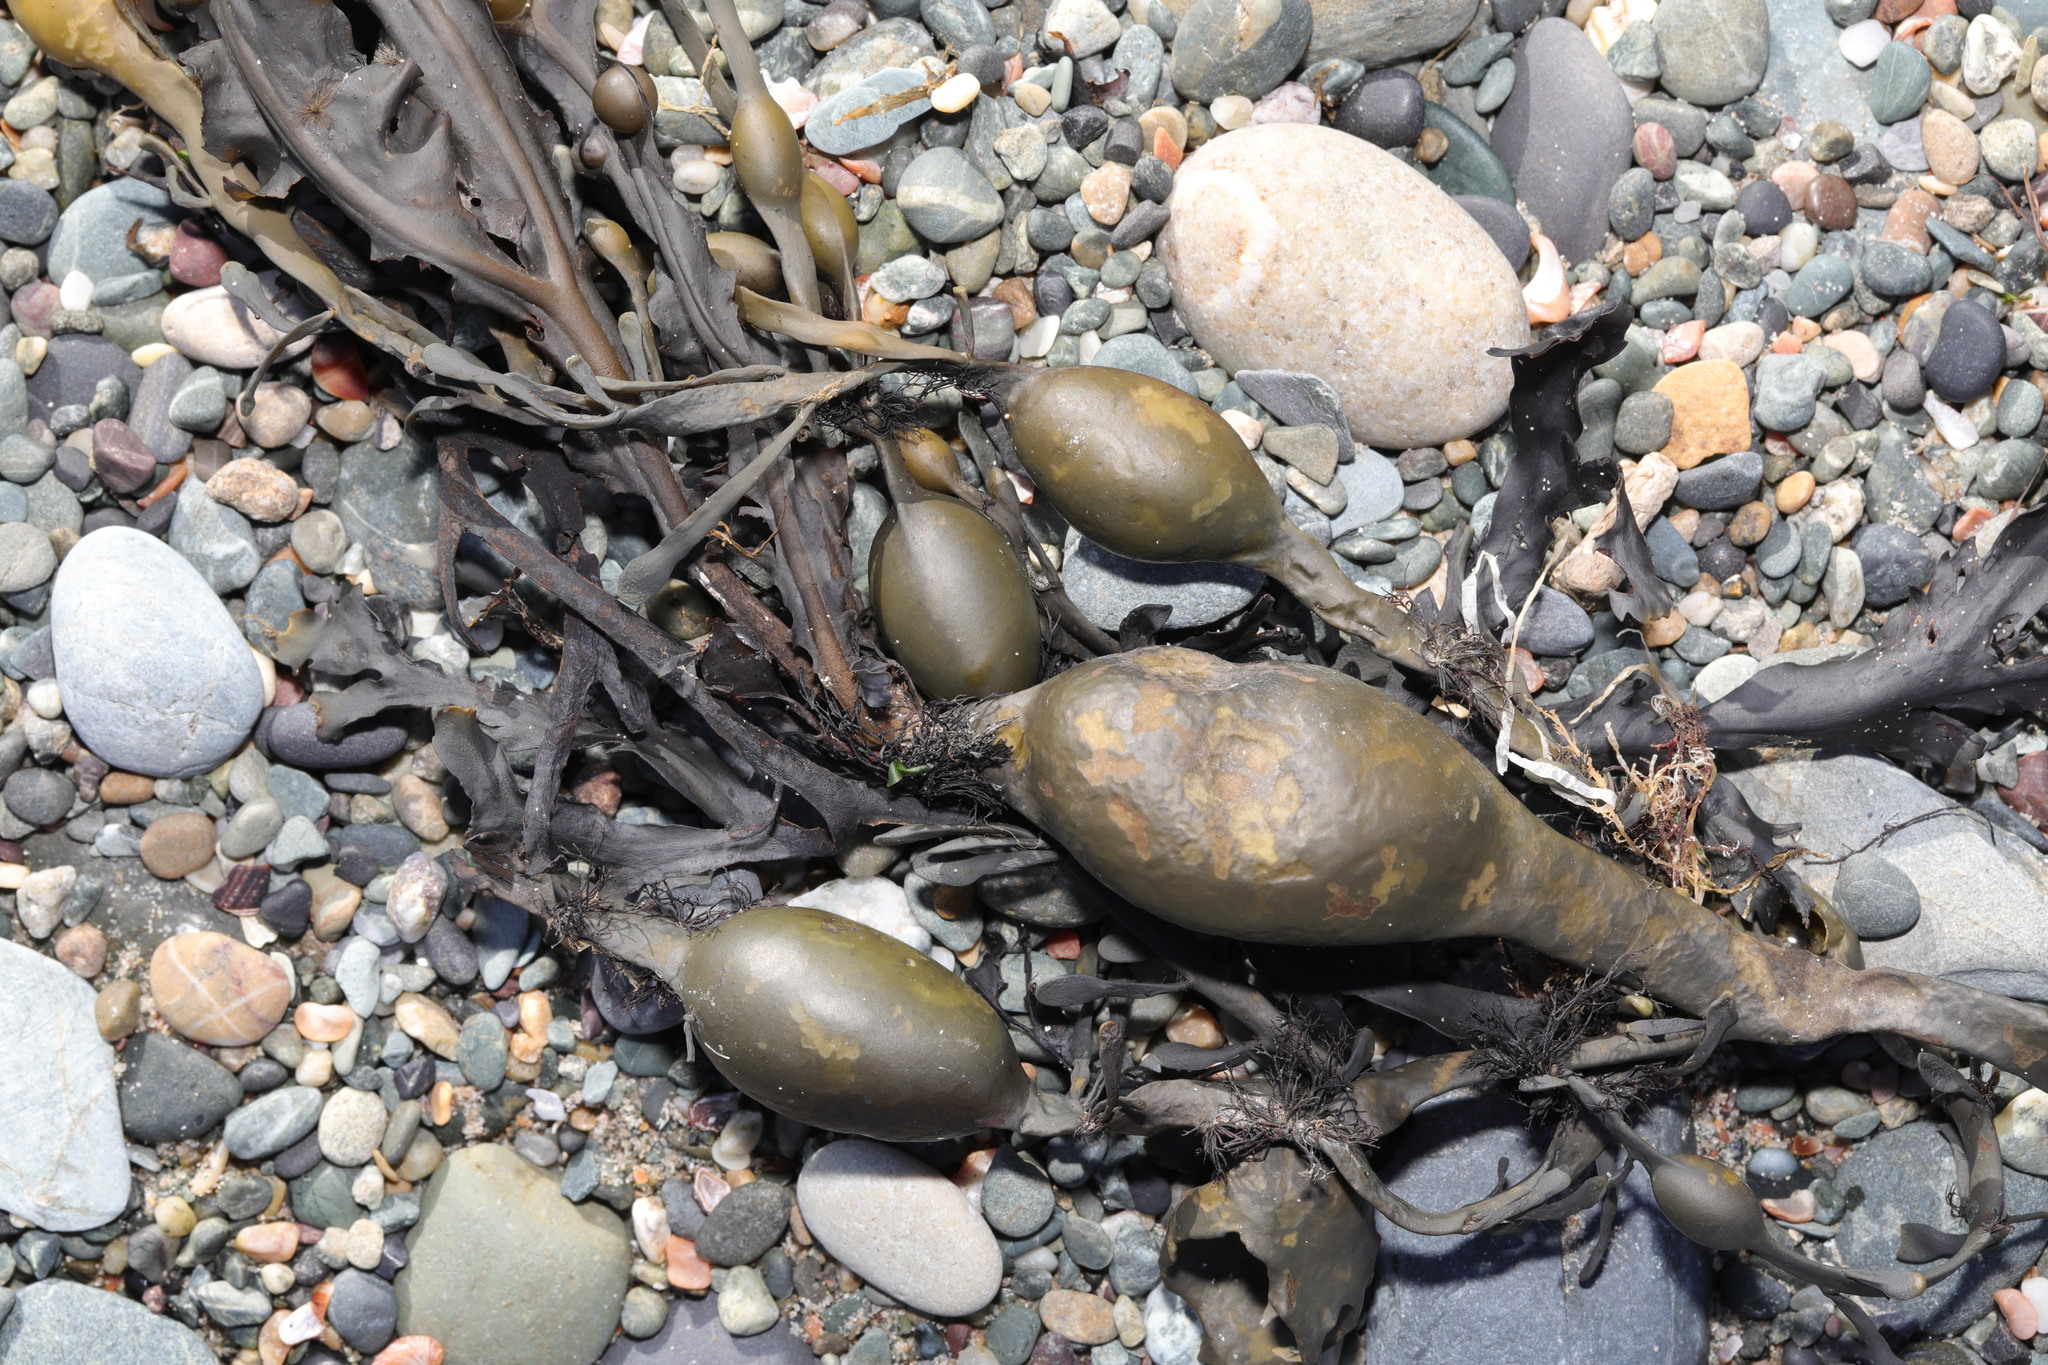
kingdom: Chromista
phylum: Ochrophyta
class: Phaeophyceae
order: Fucales
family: Fucaceae
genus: Ascophyllum
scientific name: Ascophyllum nodosum
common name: Knotted wrack
